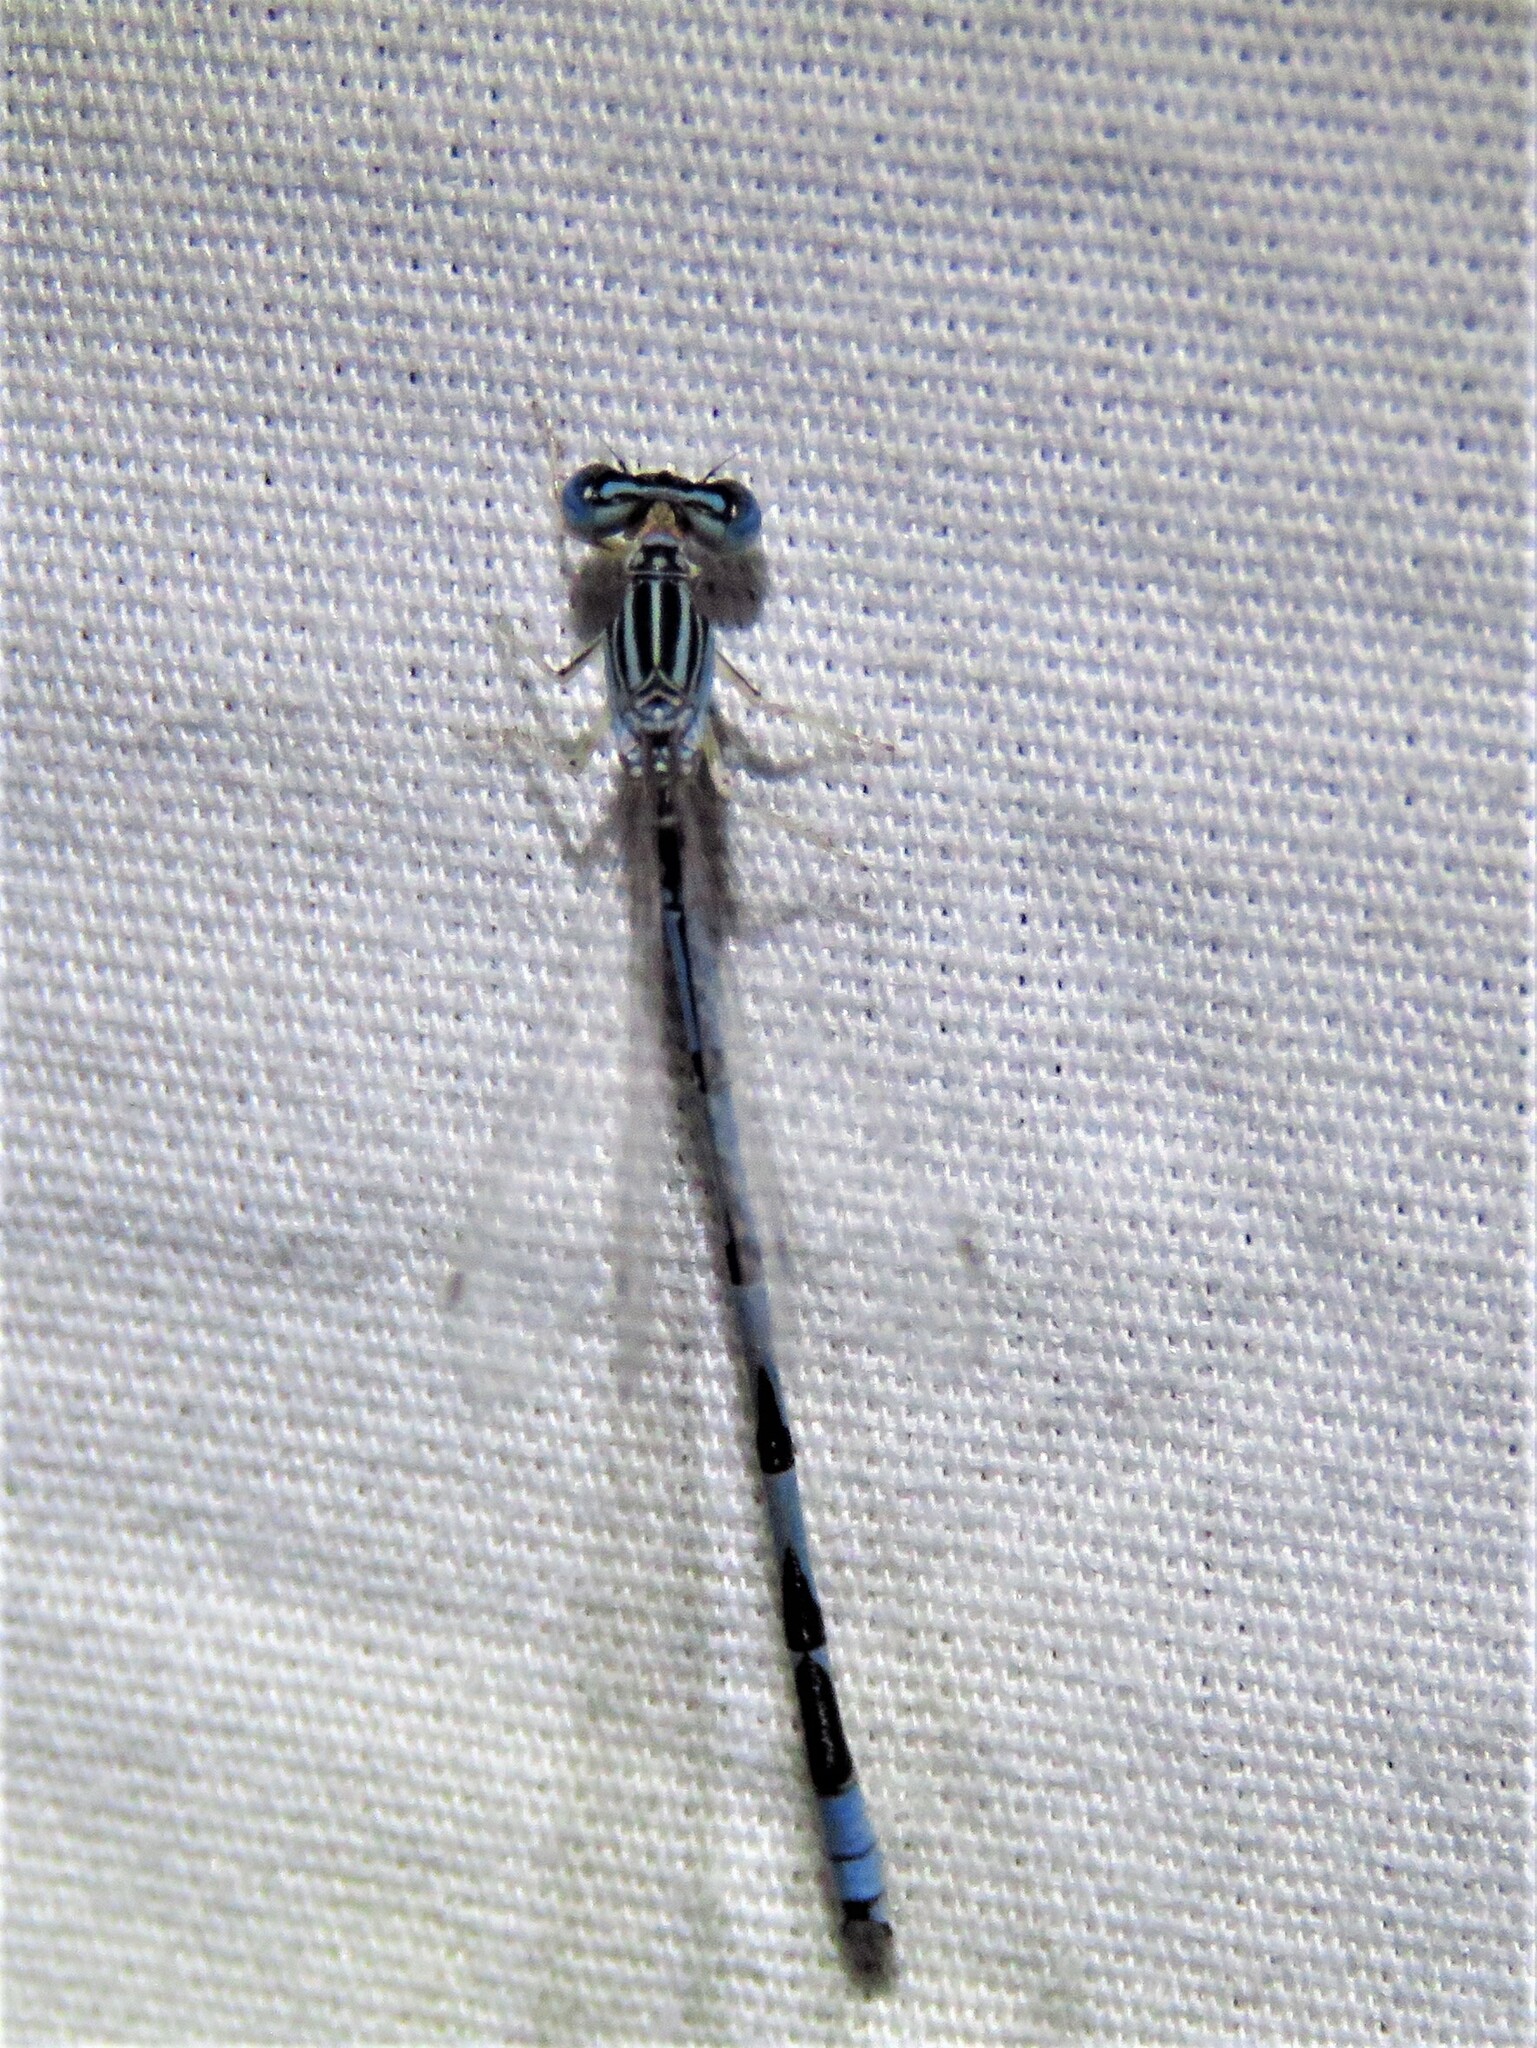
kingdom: Animalia
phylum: Arthropoda
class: Insecta
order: Odonata
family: Coenagrionidae
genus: Enallagma
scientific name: Enallagma basidens
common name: Double-striped bluet
